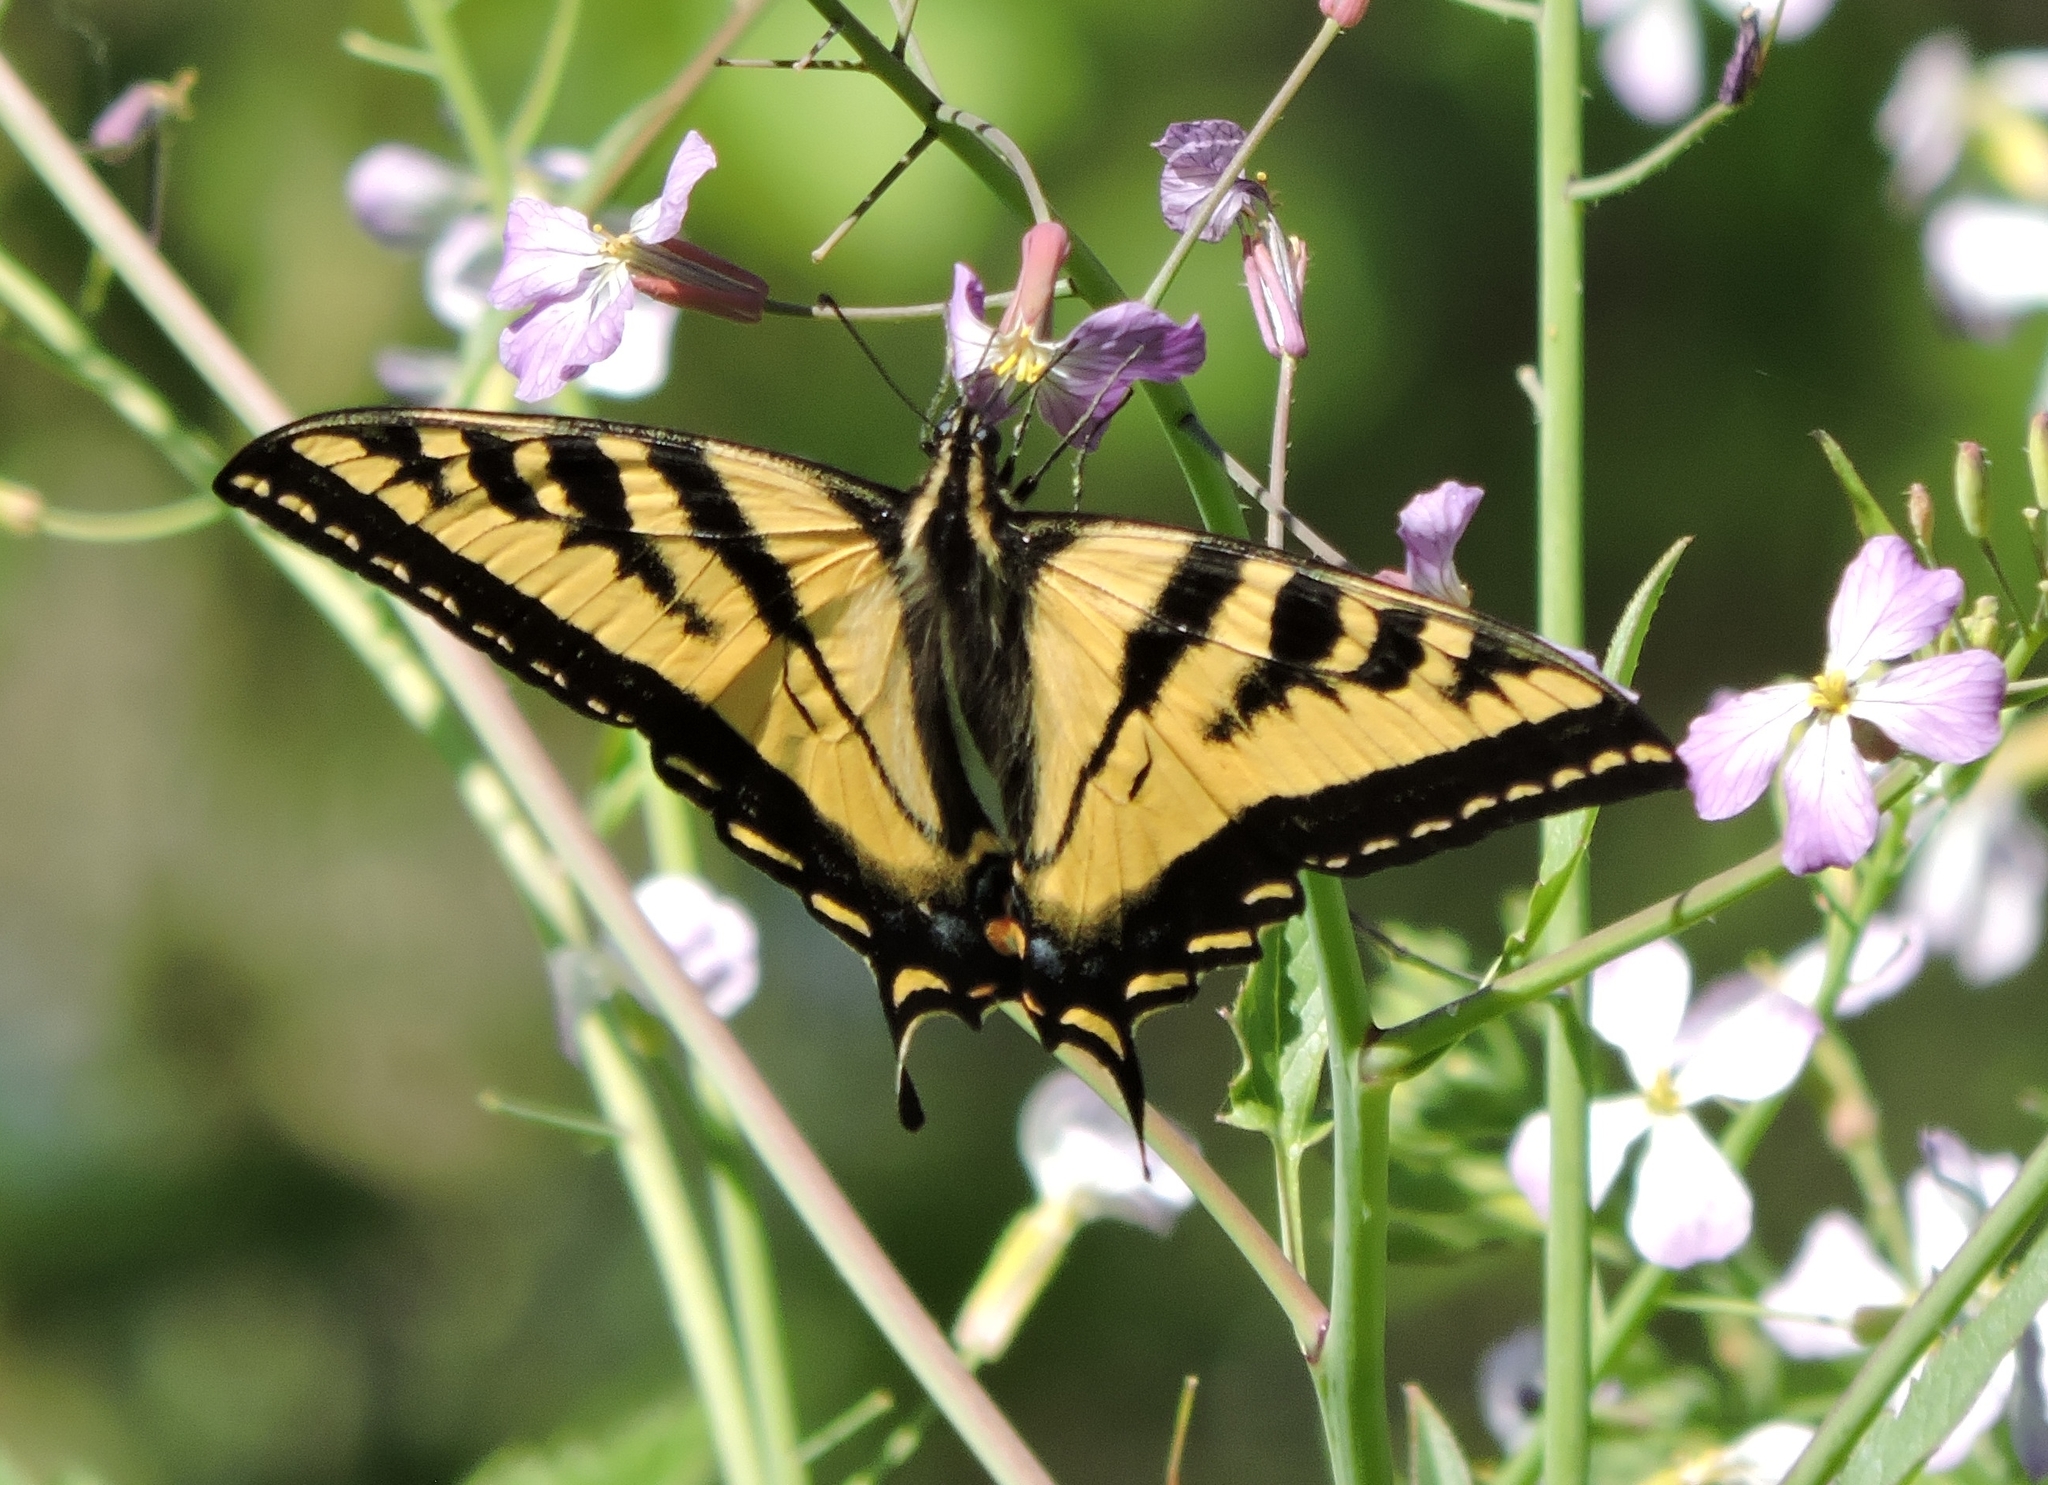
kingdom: Animalia
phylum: Arthropoda
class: Insecta
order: Lepidoptera
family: Papilionidae
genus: Papilio
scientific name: Papilio rutulus
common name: Western tiger swallowtail
